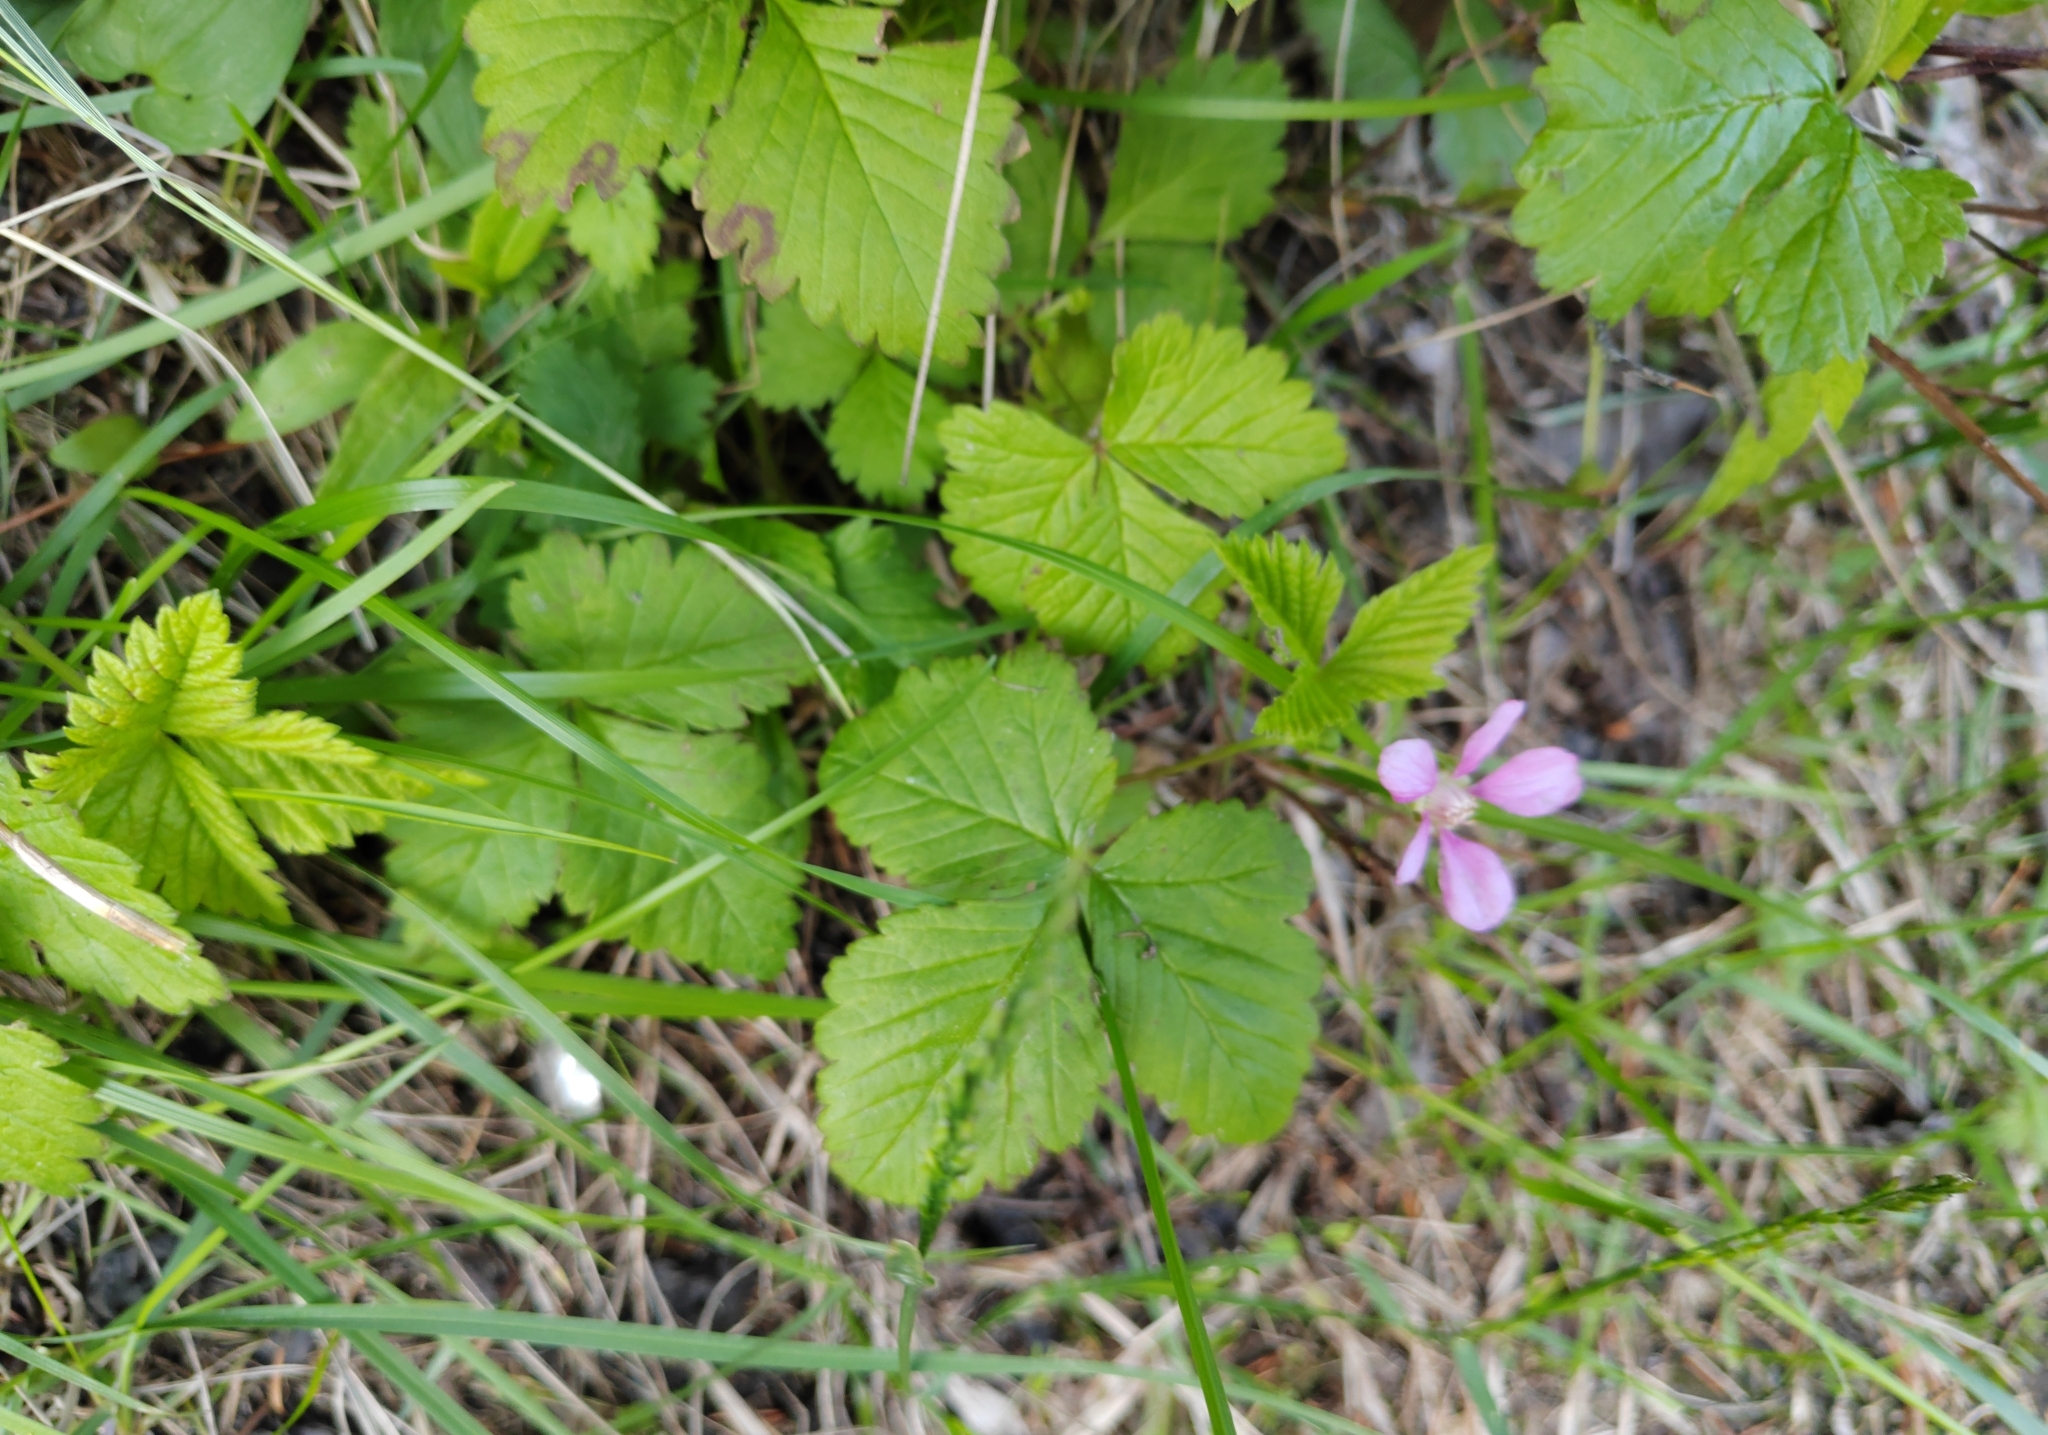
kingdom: Plantae
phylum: Tracheophyta
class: Magnoliopsida
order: Rosales
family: Rosaceae
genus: Rubus
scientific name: Rubus arcticus
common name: Arctic bramble
